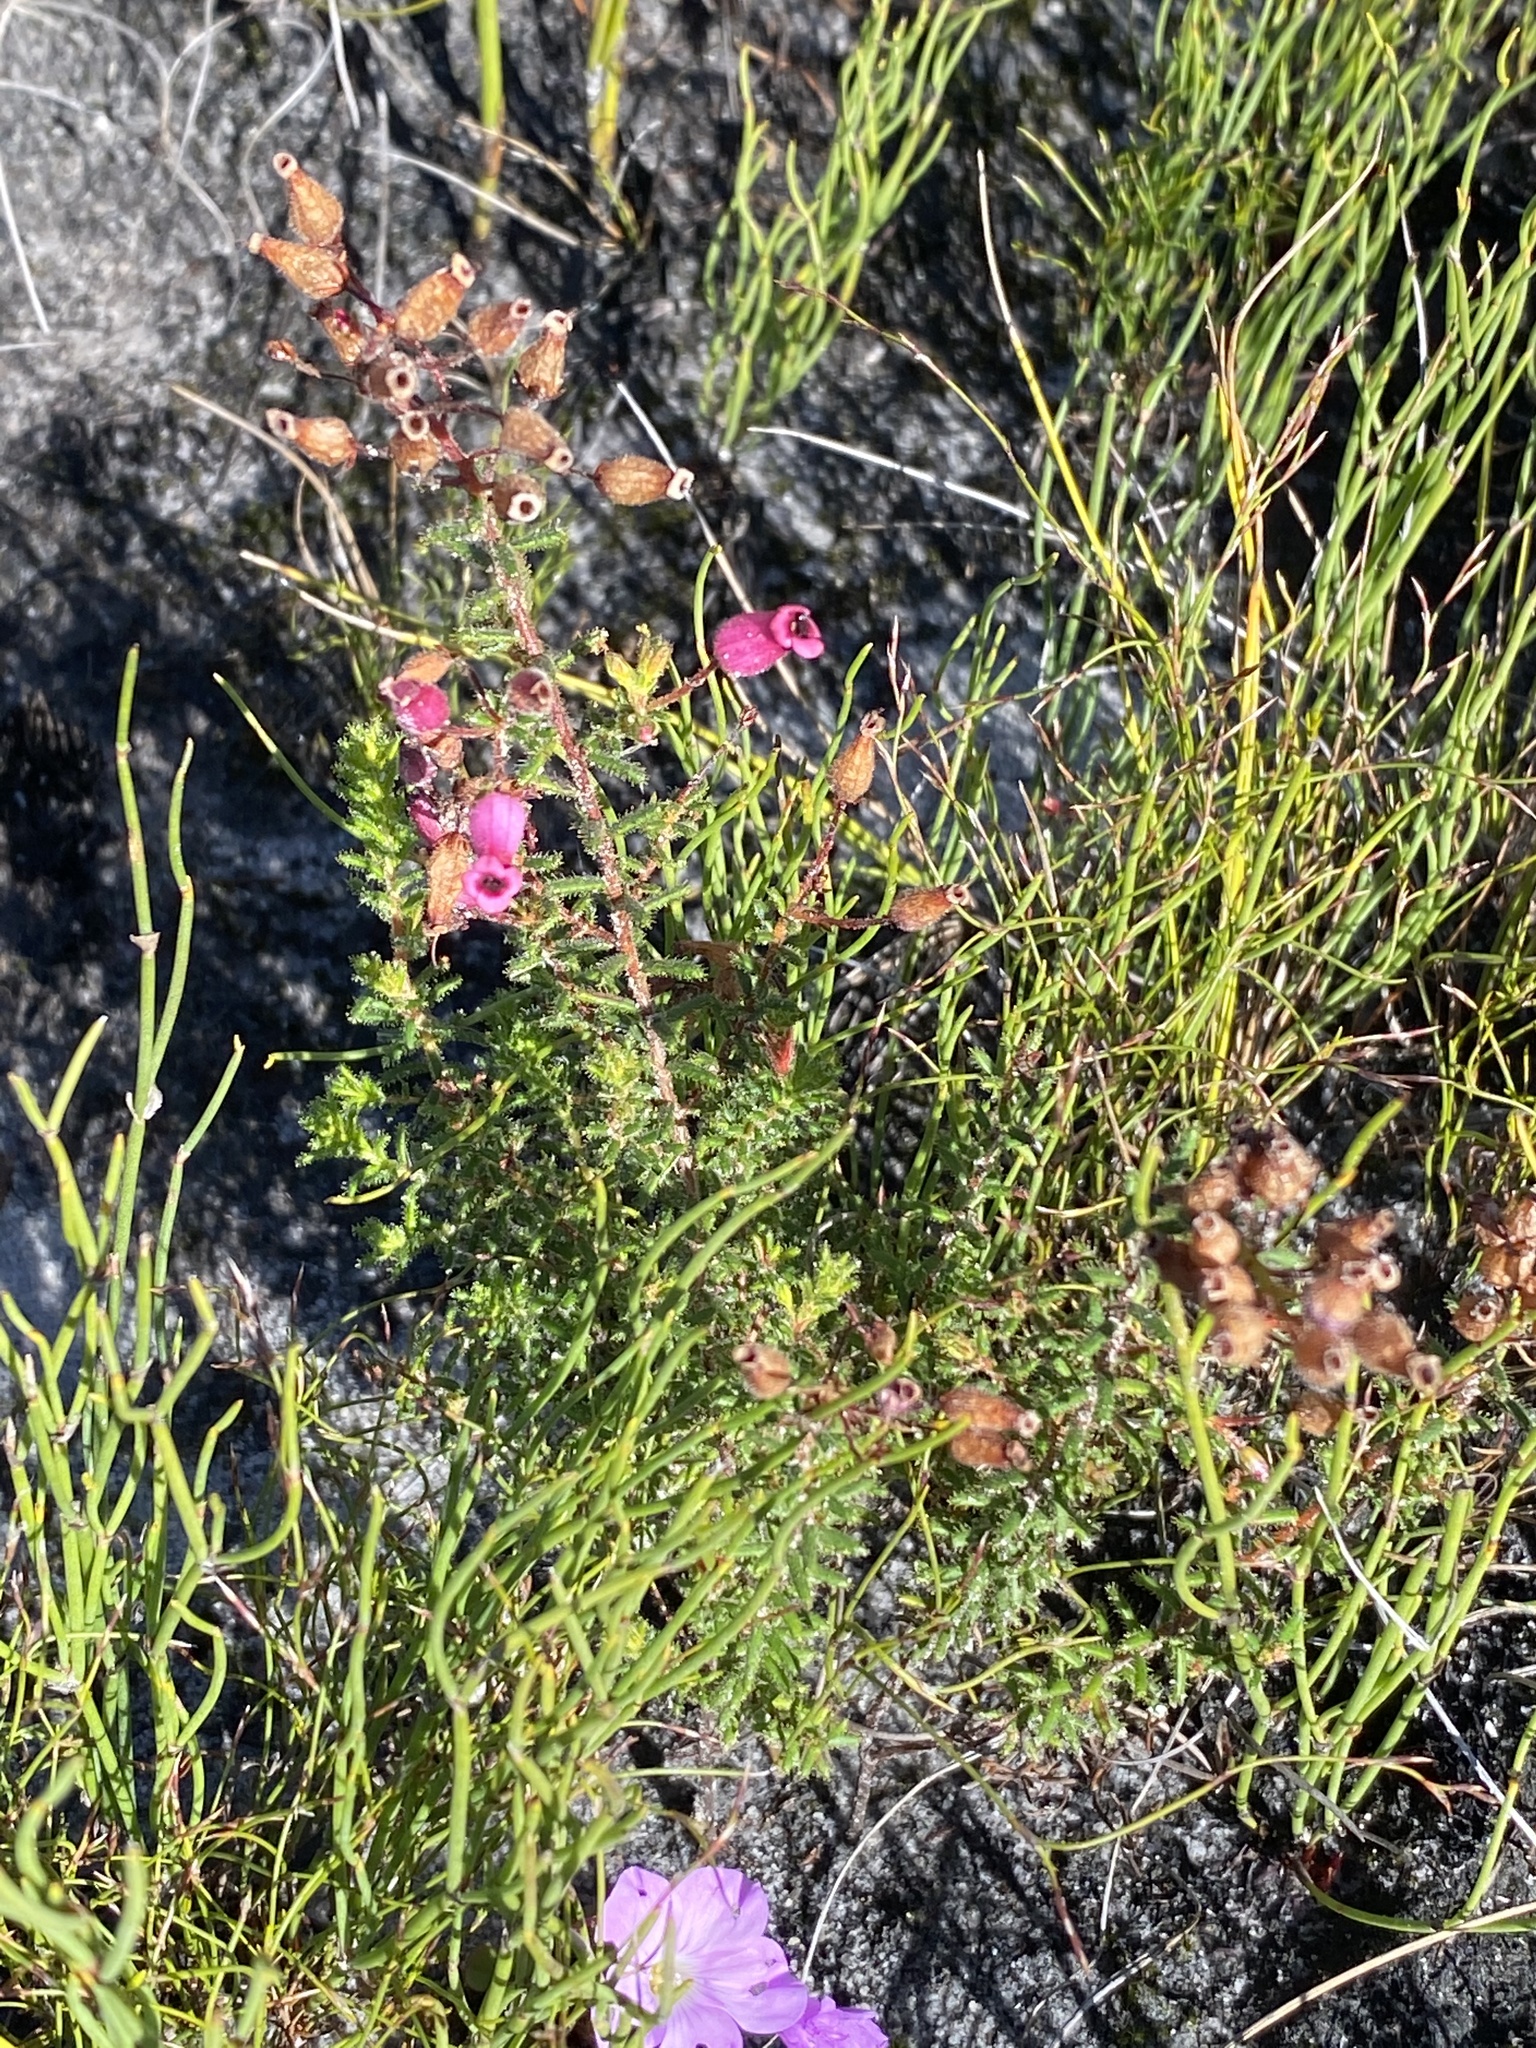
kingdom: Plantae
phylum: Tracheophyta
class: Magnoliopsida
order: Ericales
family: Ericaceae
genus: Erica
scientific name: Erica glutinosa
